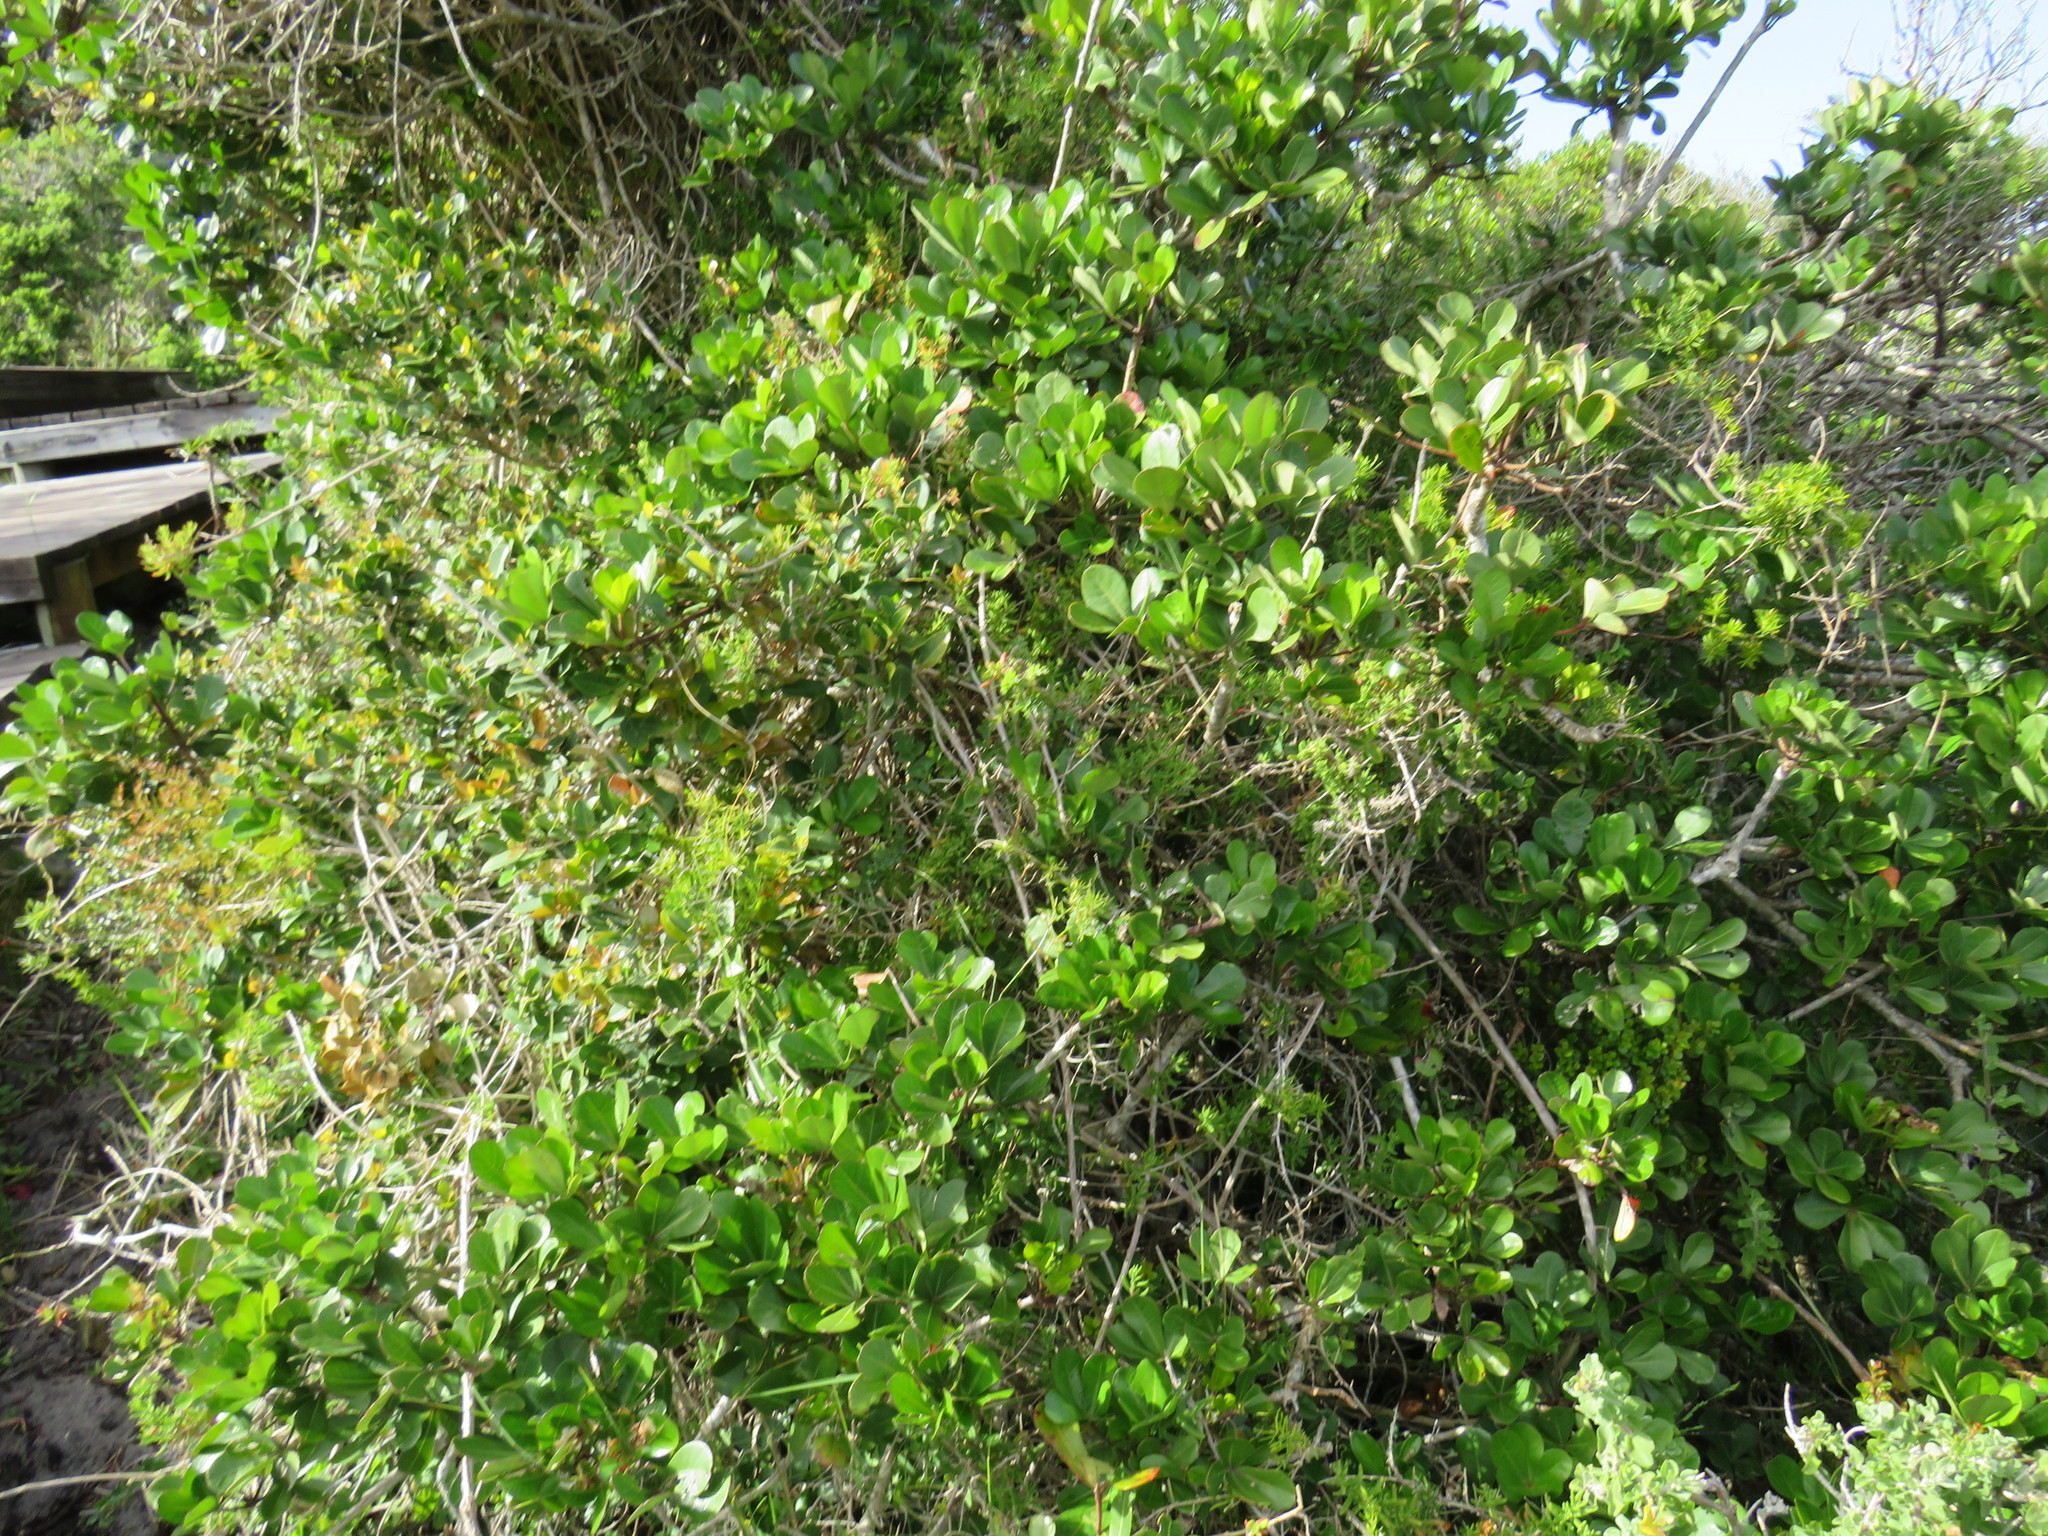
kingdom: Plantae
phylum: Tracheophyta
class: Magnoliopsida
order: Apiales
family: Araliaceae
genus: Cussonia
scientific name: Cussonia thyrsiflora
